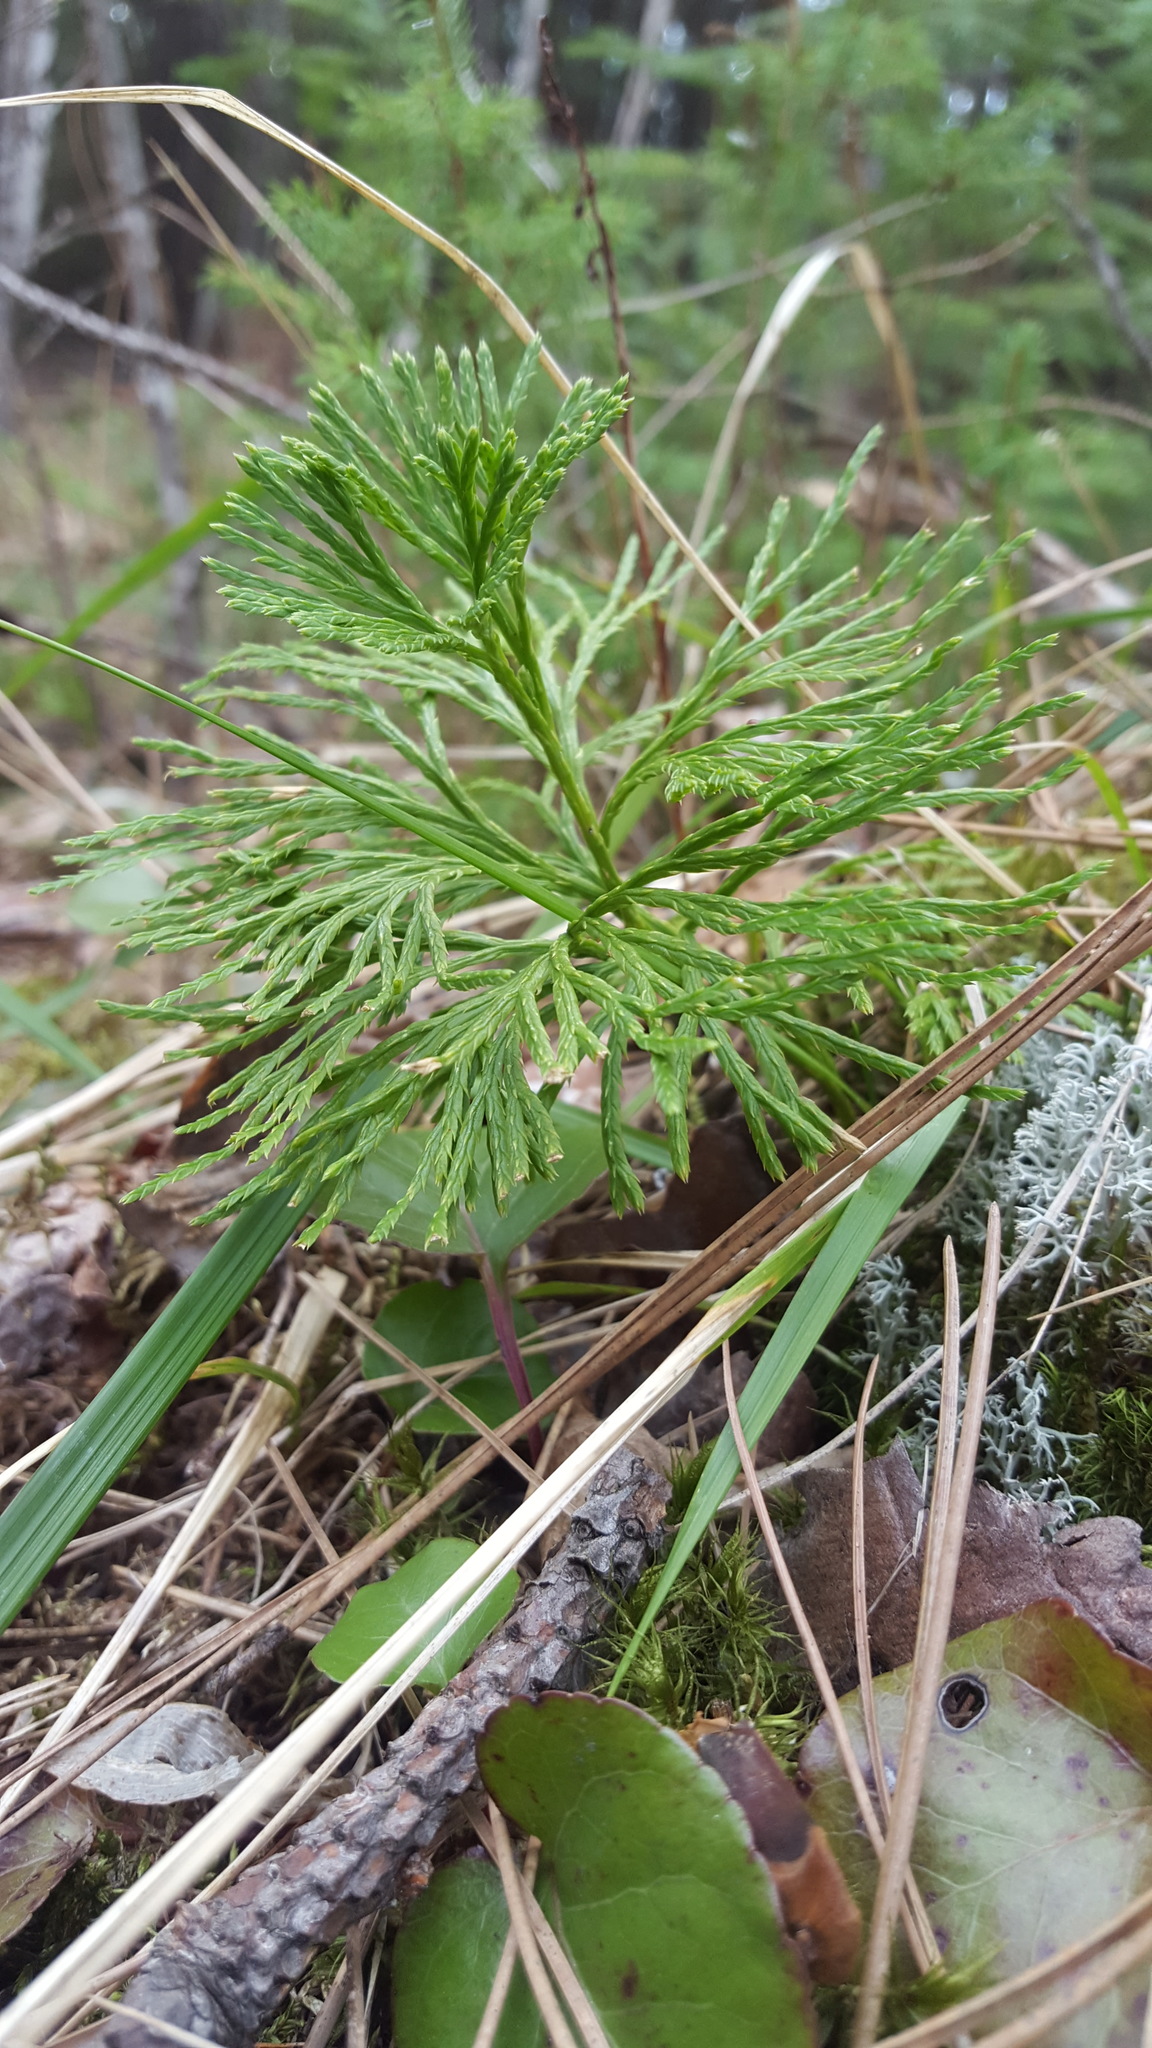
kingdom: Plantae
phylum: Tracheophyta
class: Lycopodiopsida
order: Lycopodiales
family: Lycopodiaceae
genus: Diphasiastrum
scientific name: Diphasiastrum complanatum
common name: Northern running-pine
